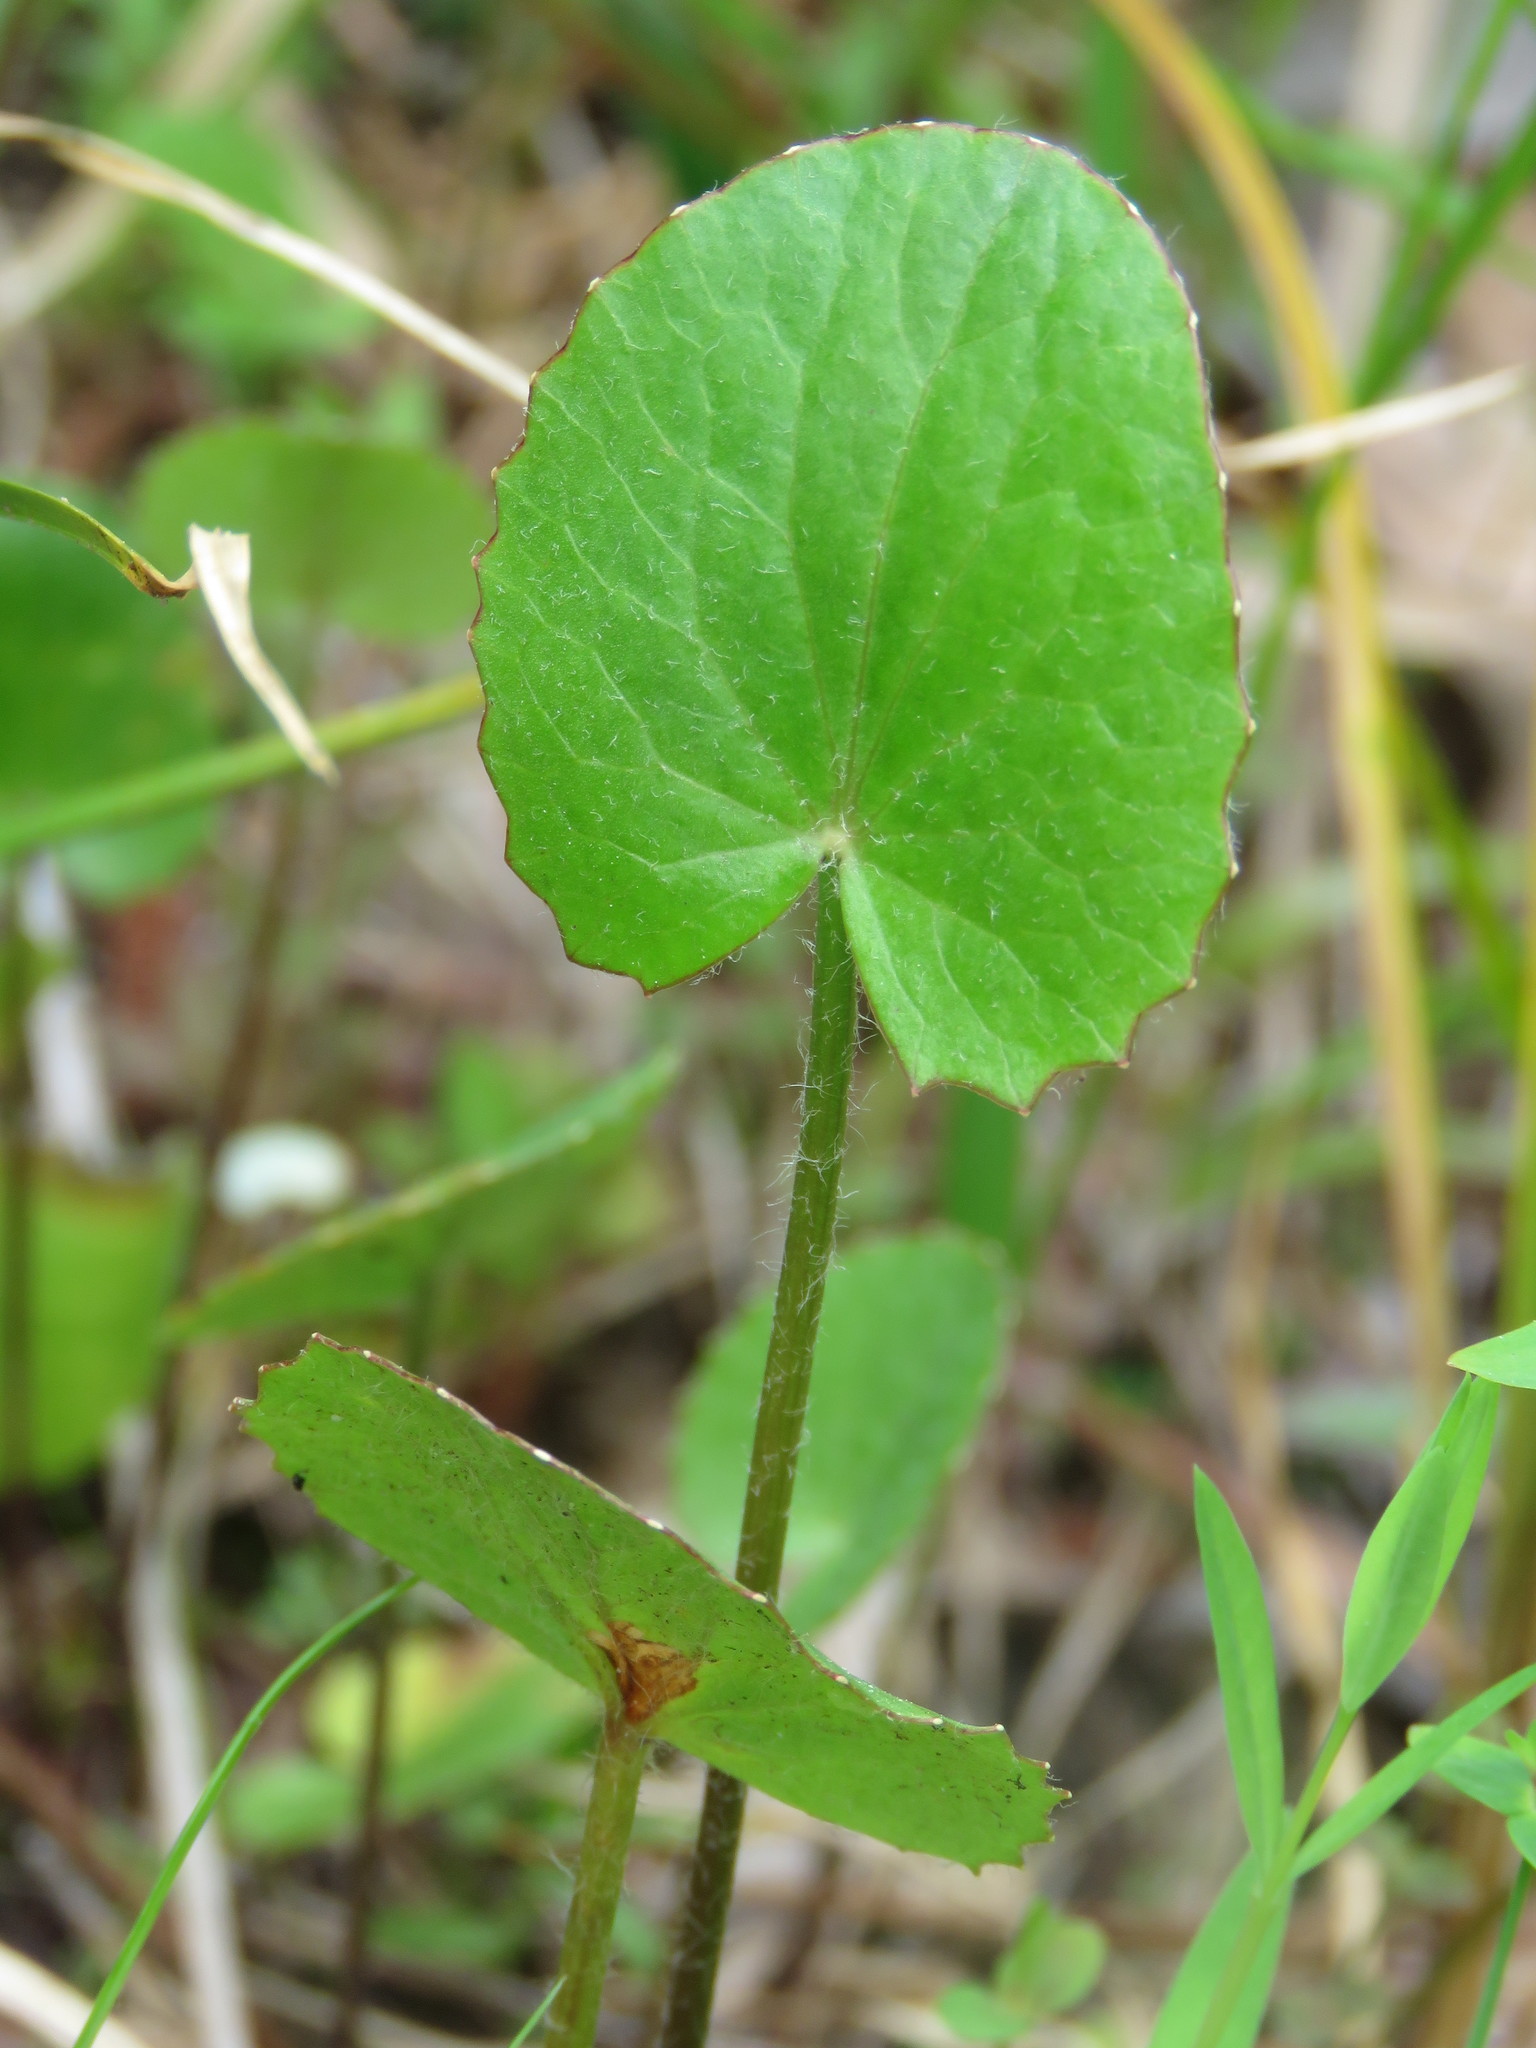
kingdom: Plantae
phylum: Tracheophyta
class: Magnoliopsida
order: Apiales
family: Apiaceae
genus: Centella
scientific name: Centella erecta
